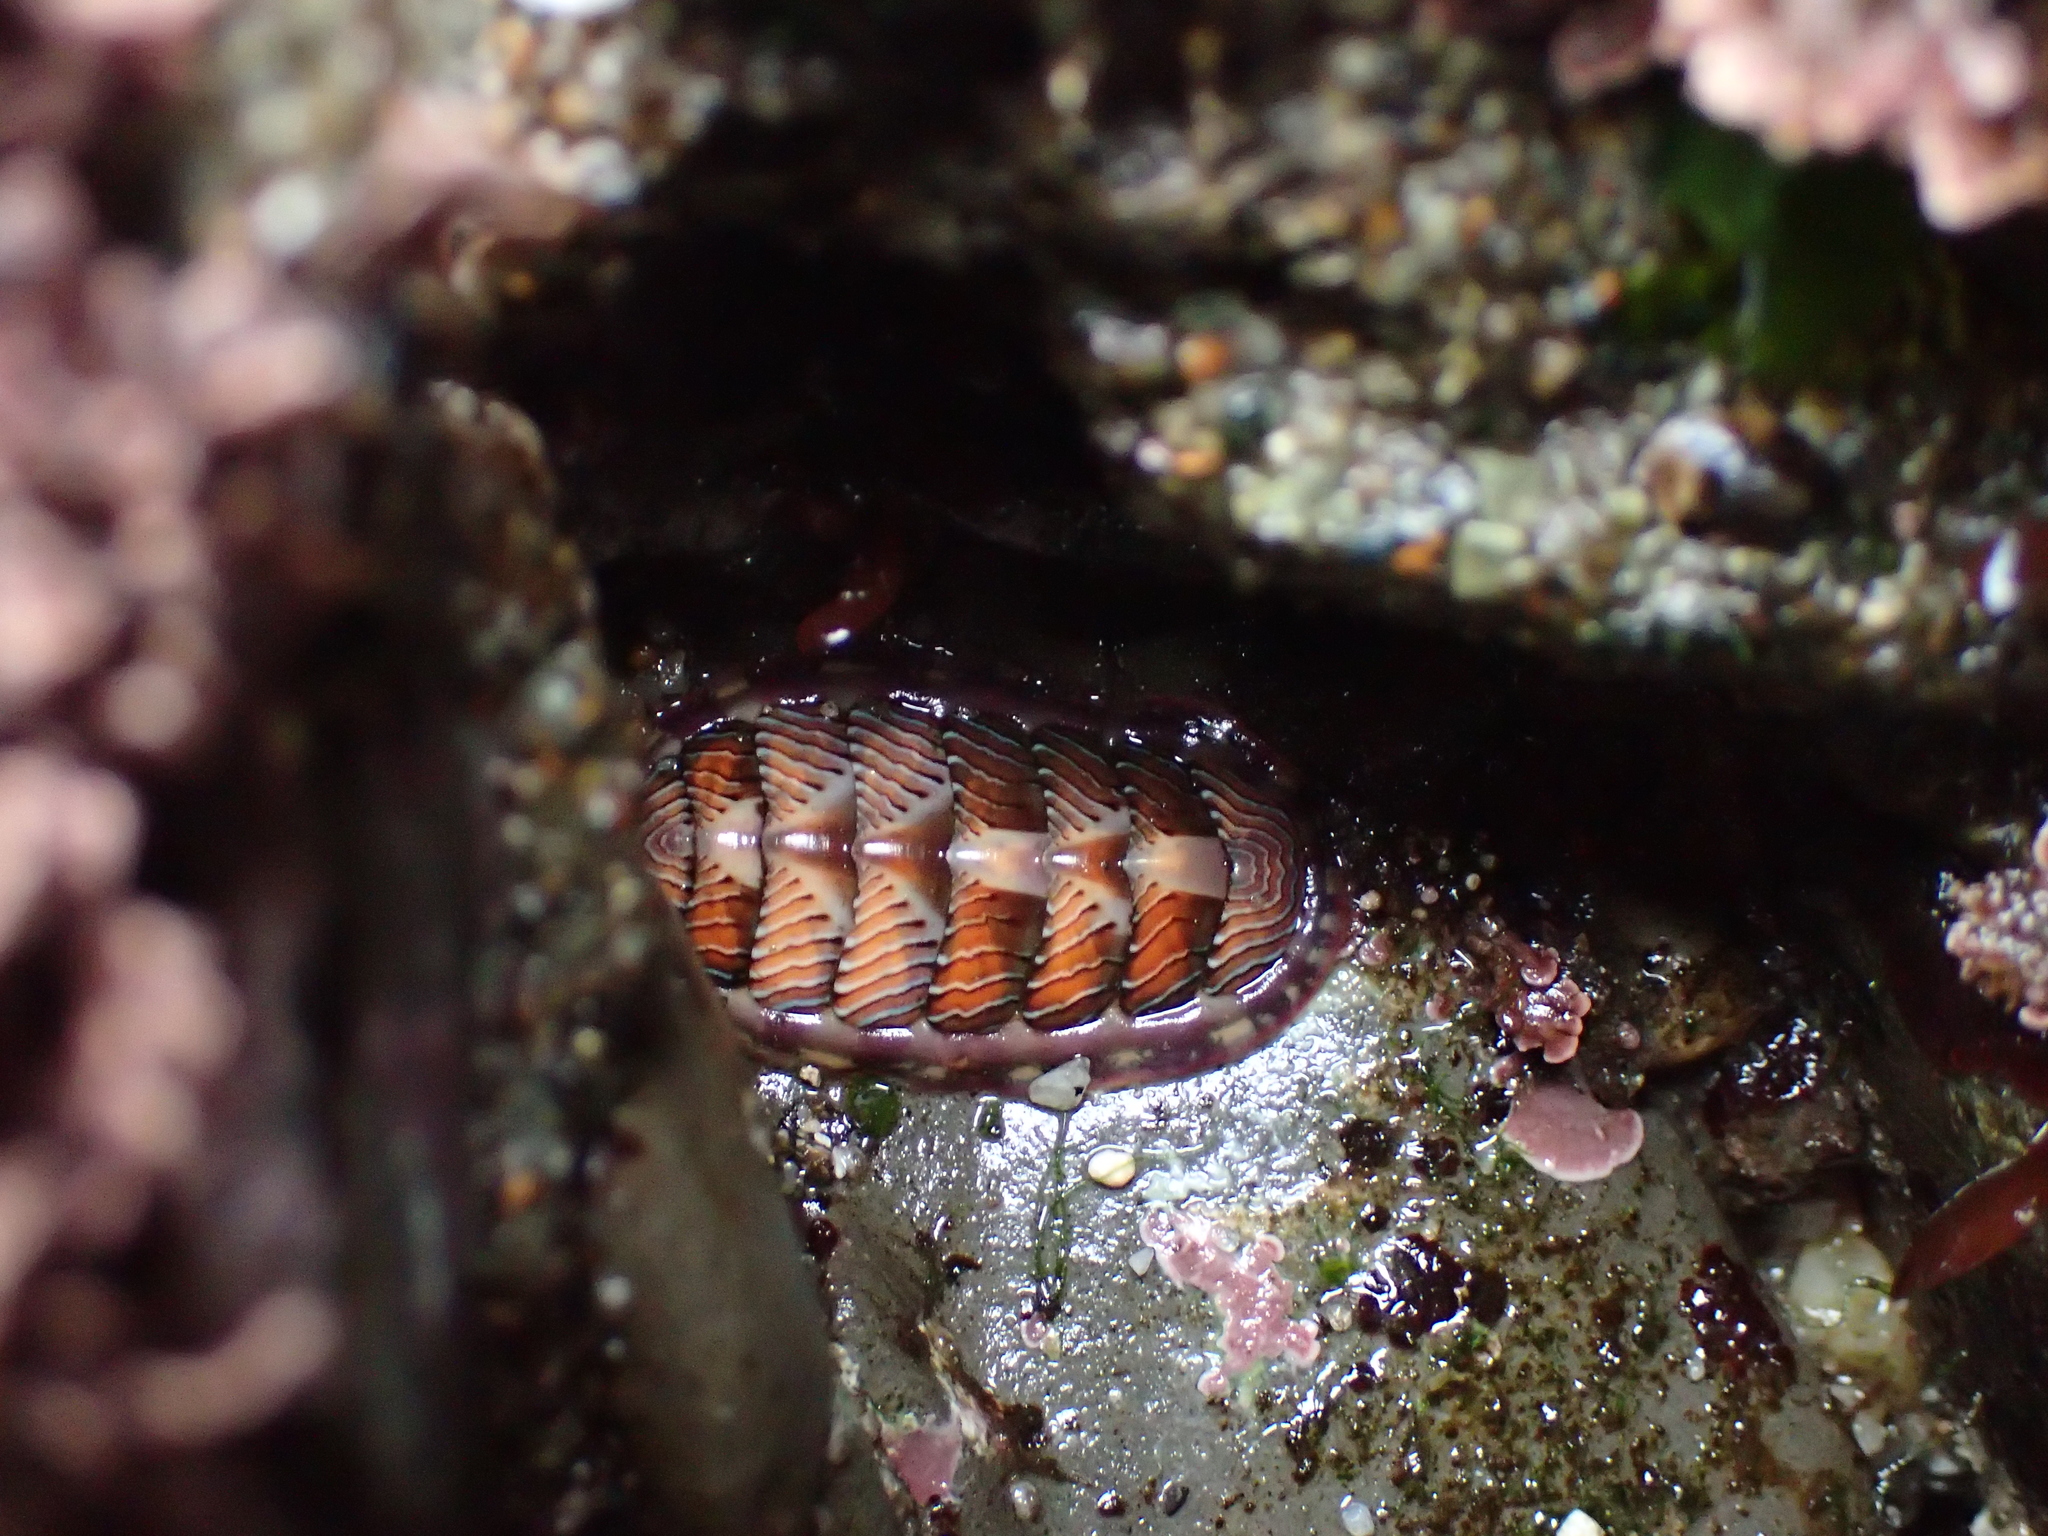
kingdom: Animalia
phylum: Mollusca
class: Polyplacophora
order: Chitonida
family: Tonicellidae
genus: Tonicella
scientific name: Tonicella lineata
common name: Lined chiton
